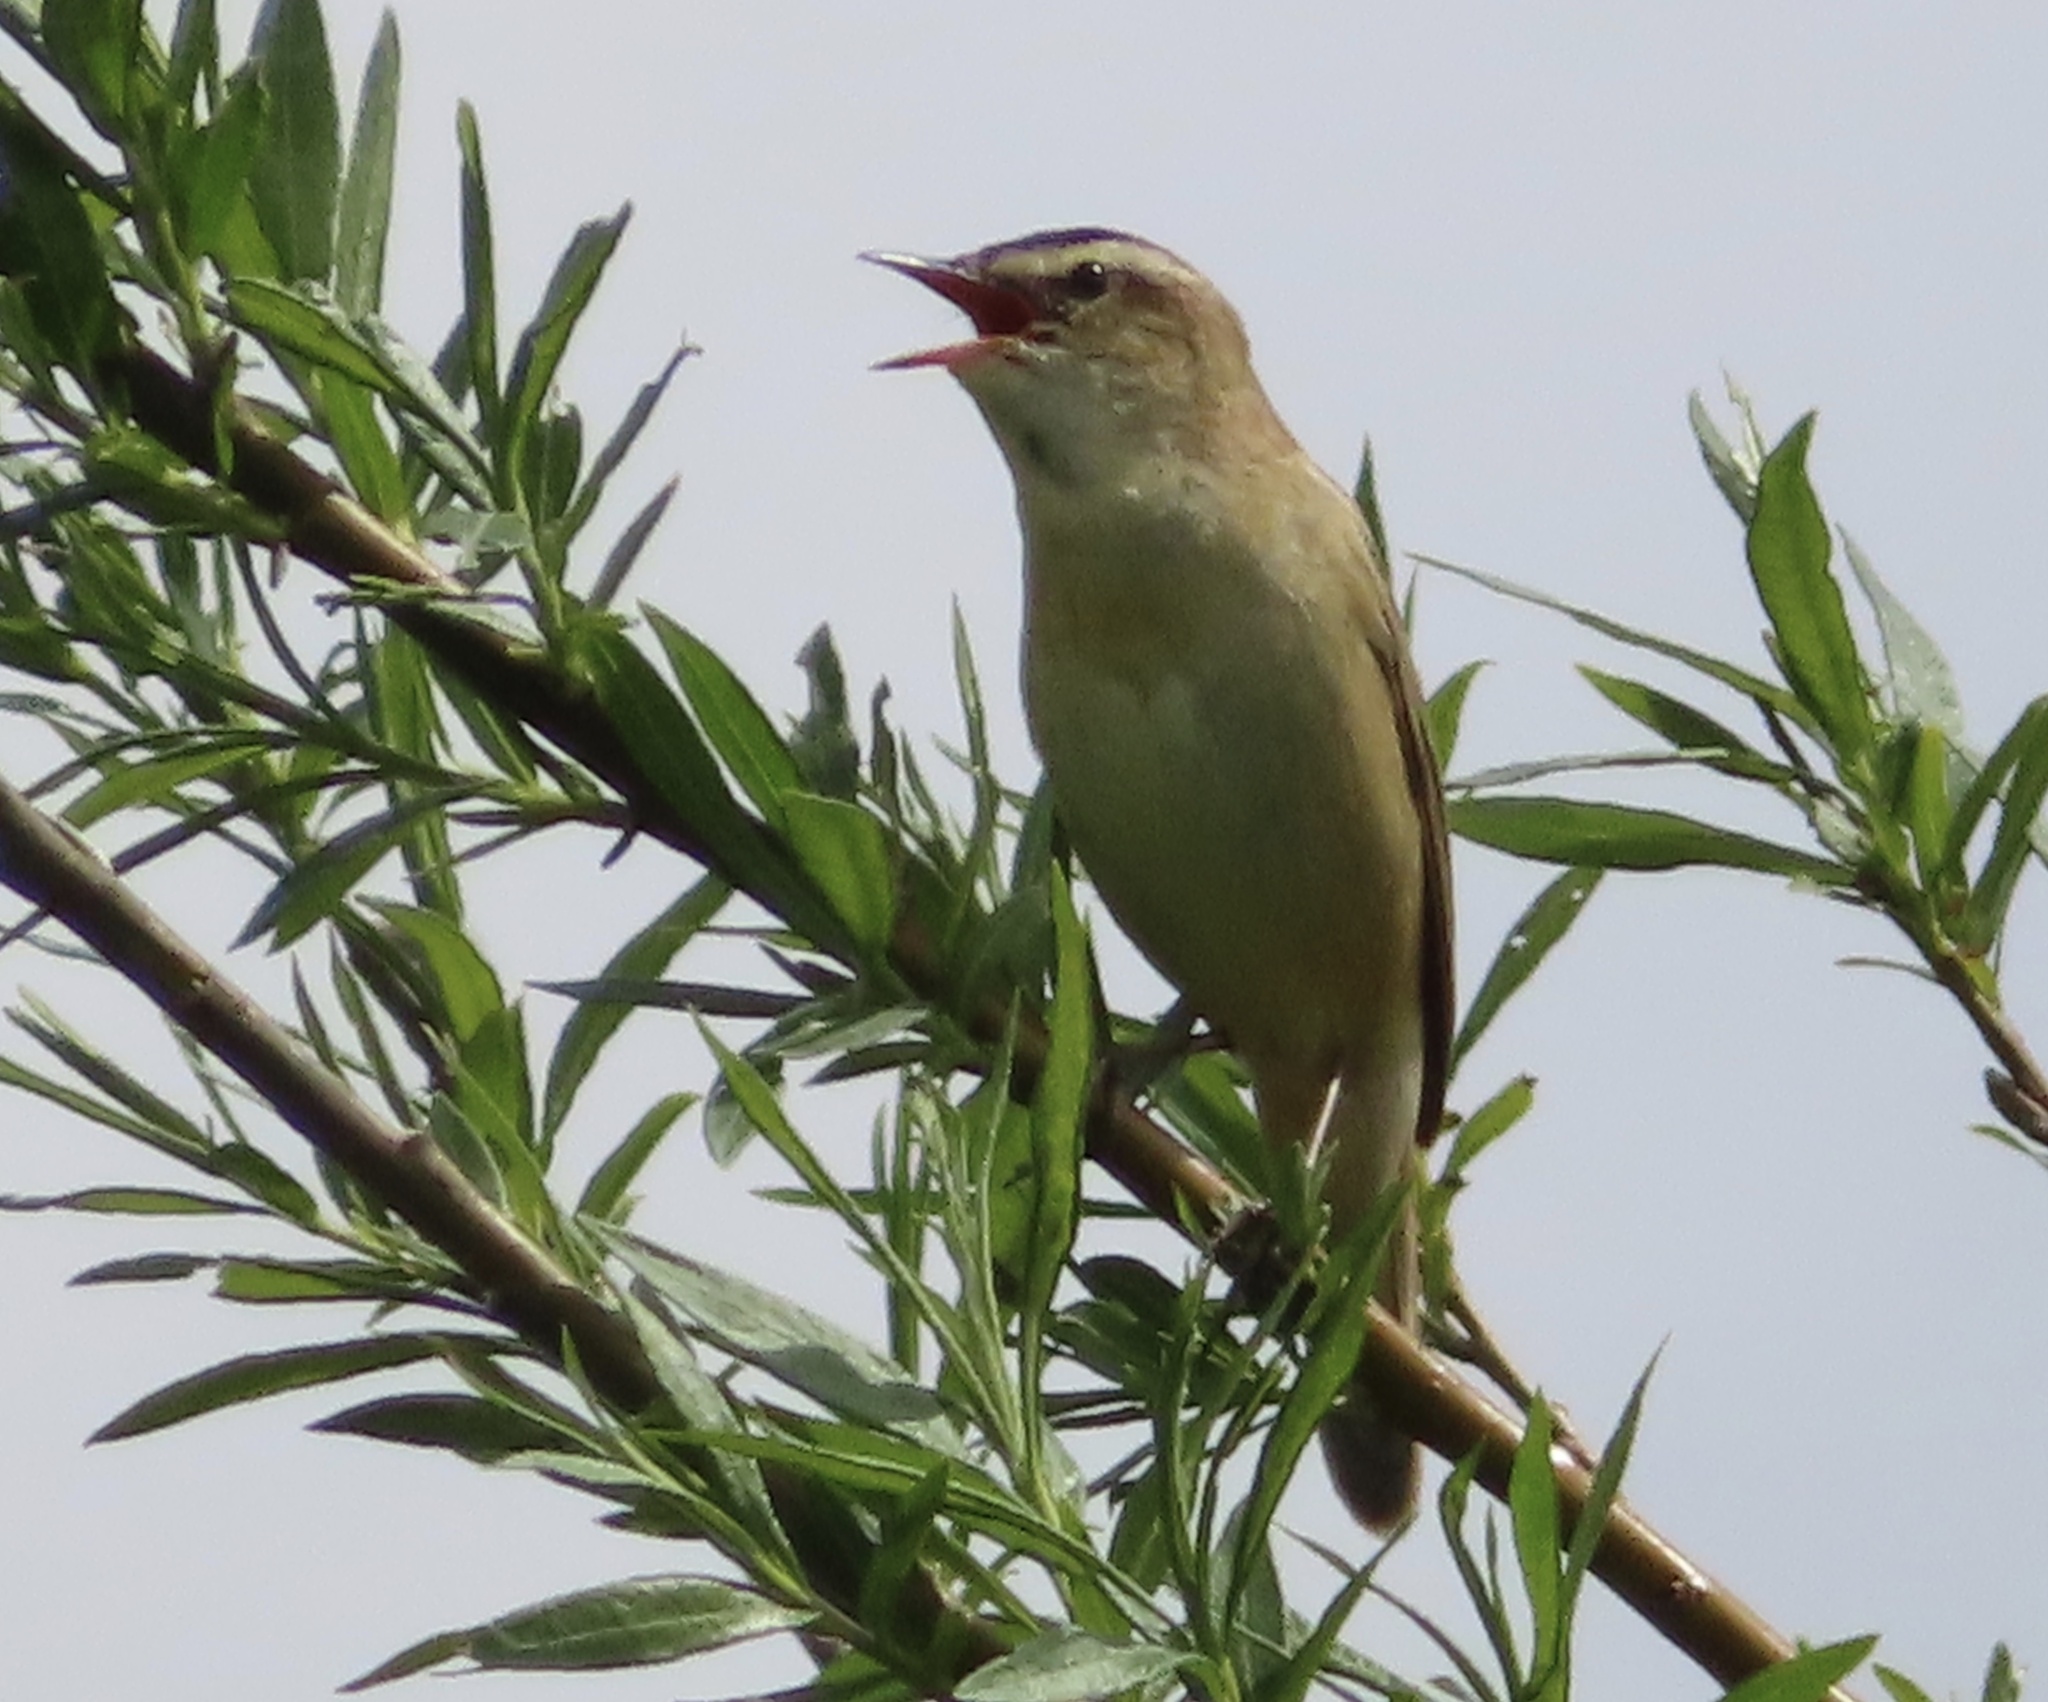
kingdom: Animalia
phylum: Chordata
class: Aves
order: Passeriformes
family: Acrocephalidae
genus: Acrocephalus
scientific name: Acrocephalus schoenobaenus
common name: Sedge warbler
